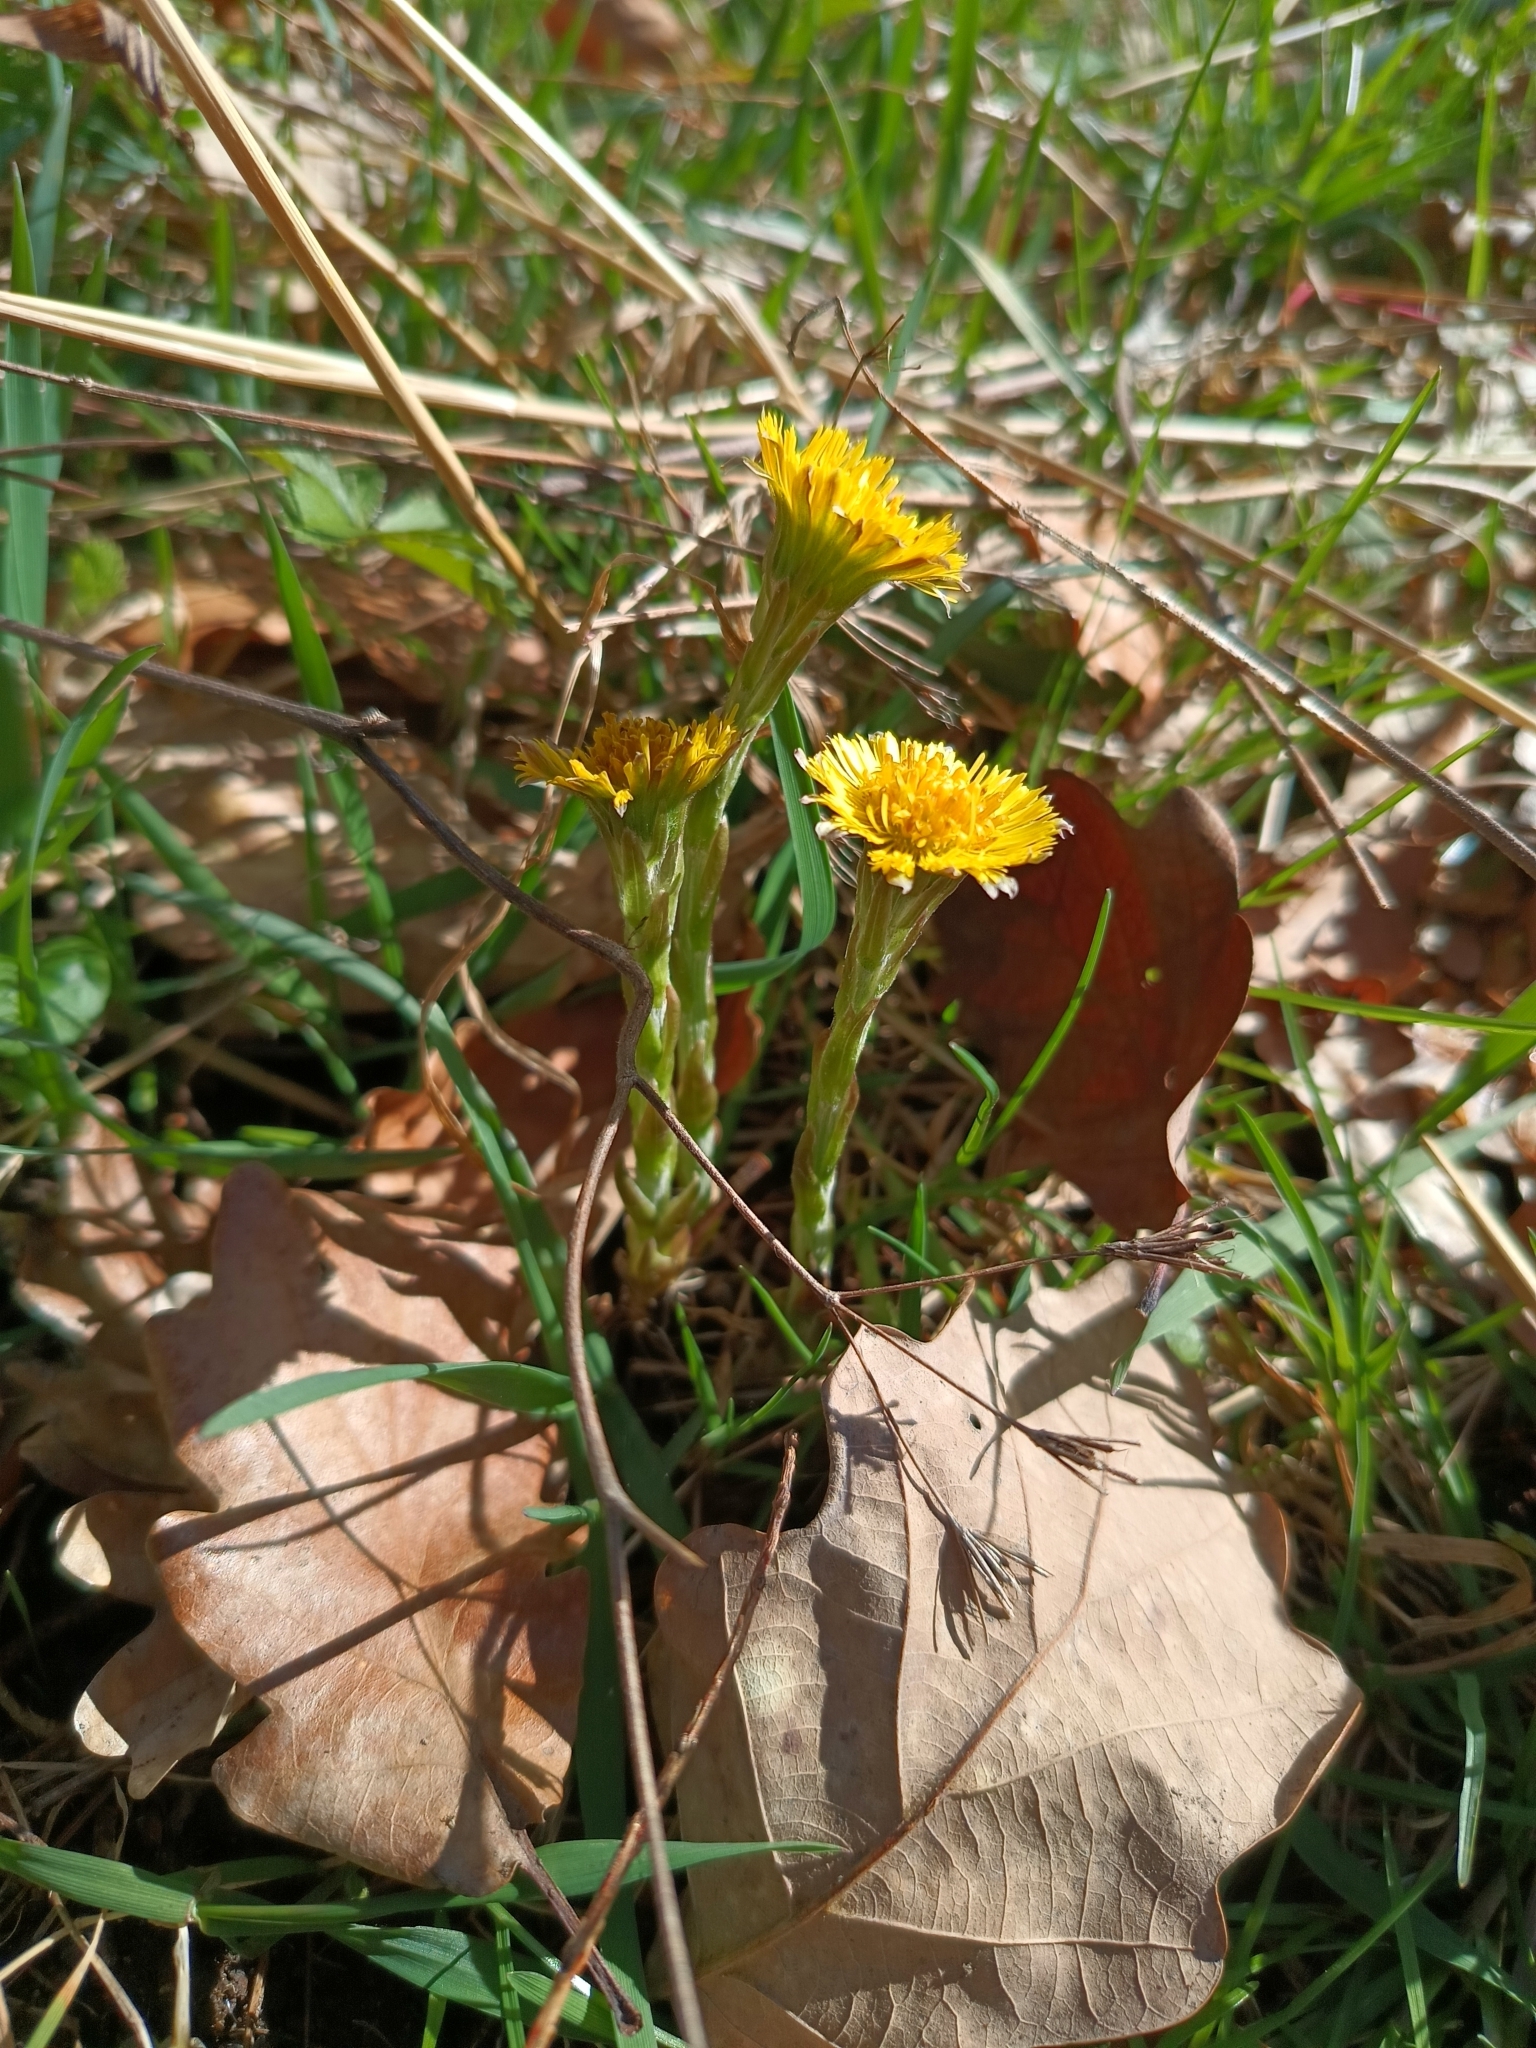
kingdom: Plantae
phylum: Tracheophyta
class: Magnoliopsida
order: Asterales
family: Asteraceae
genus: Tussilago
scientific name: Tussilago farfara
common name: Coltsfoot
